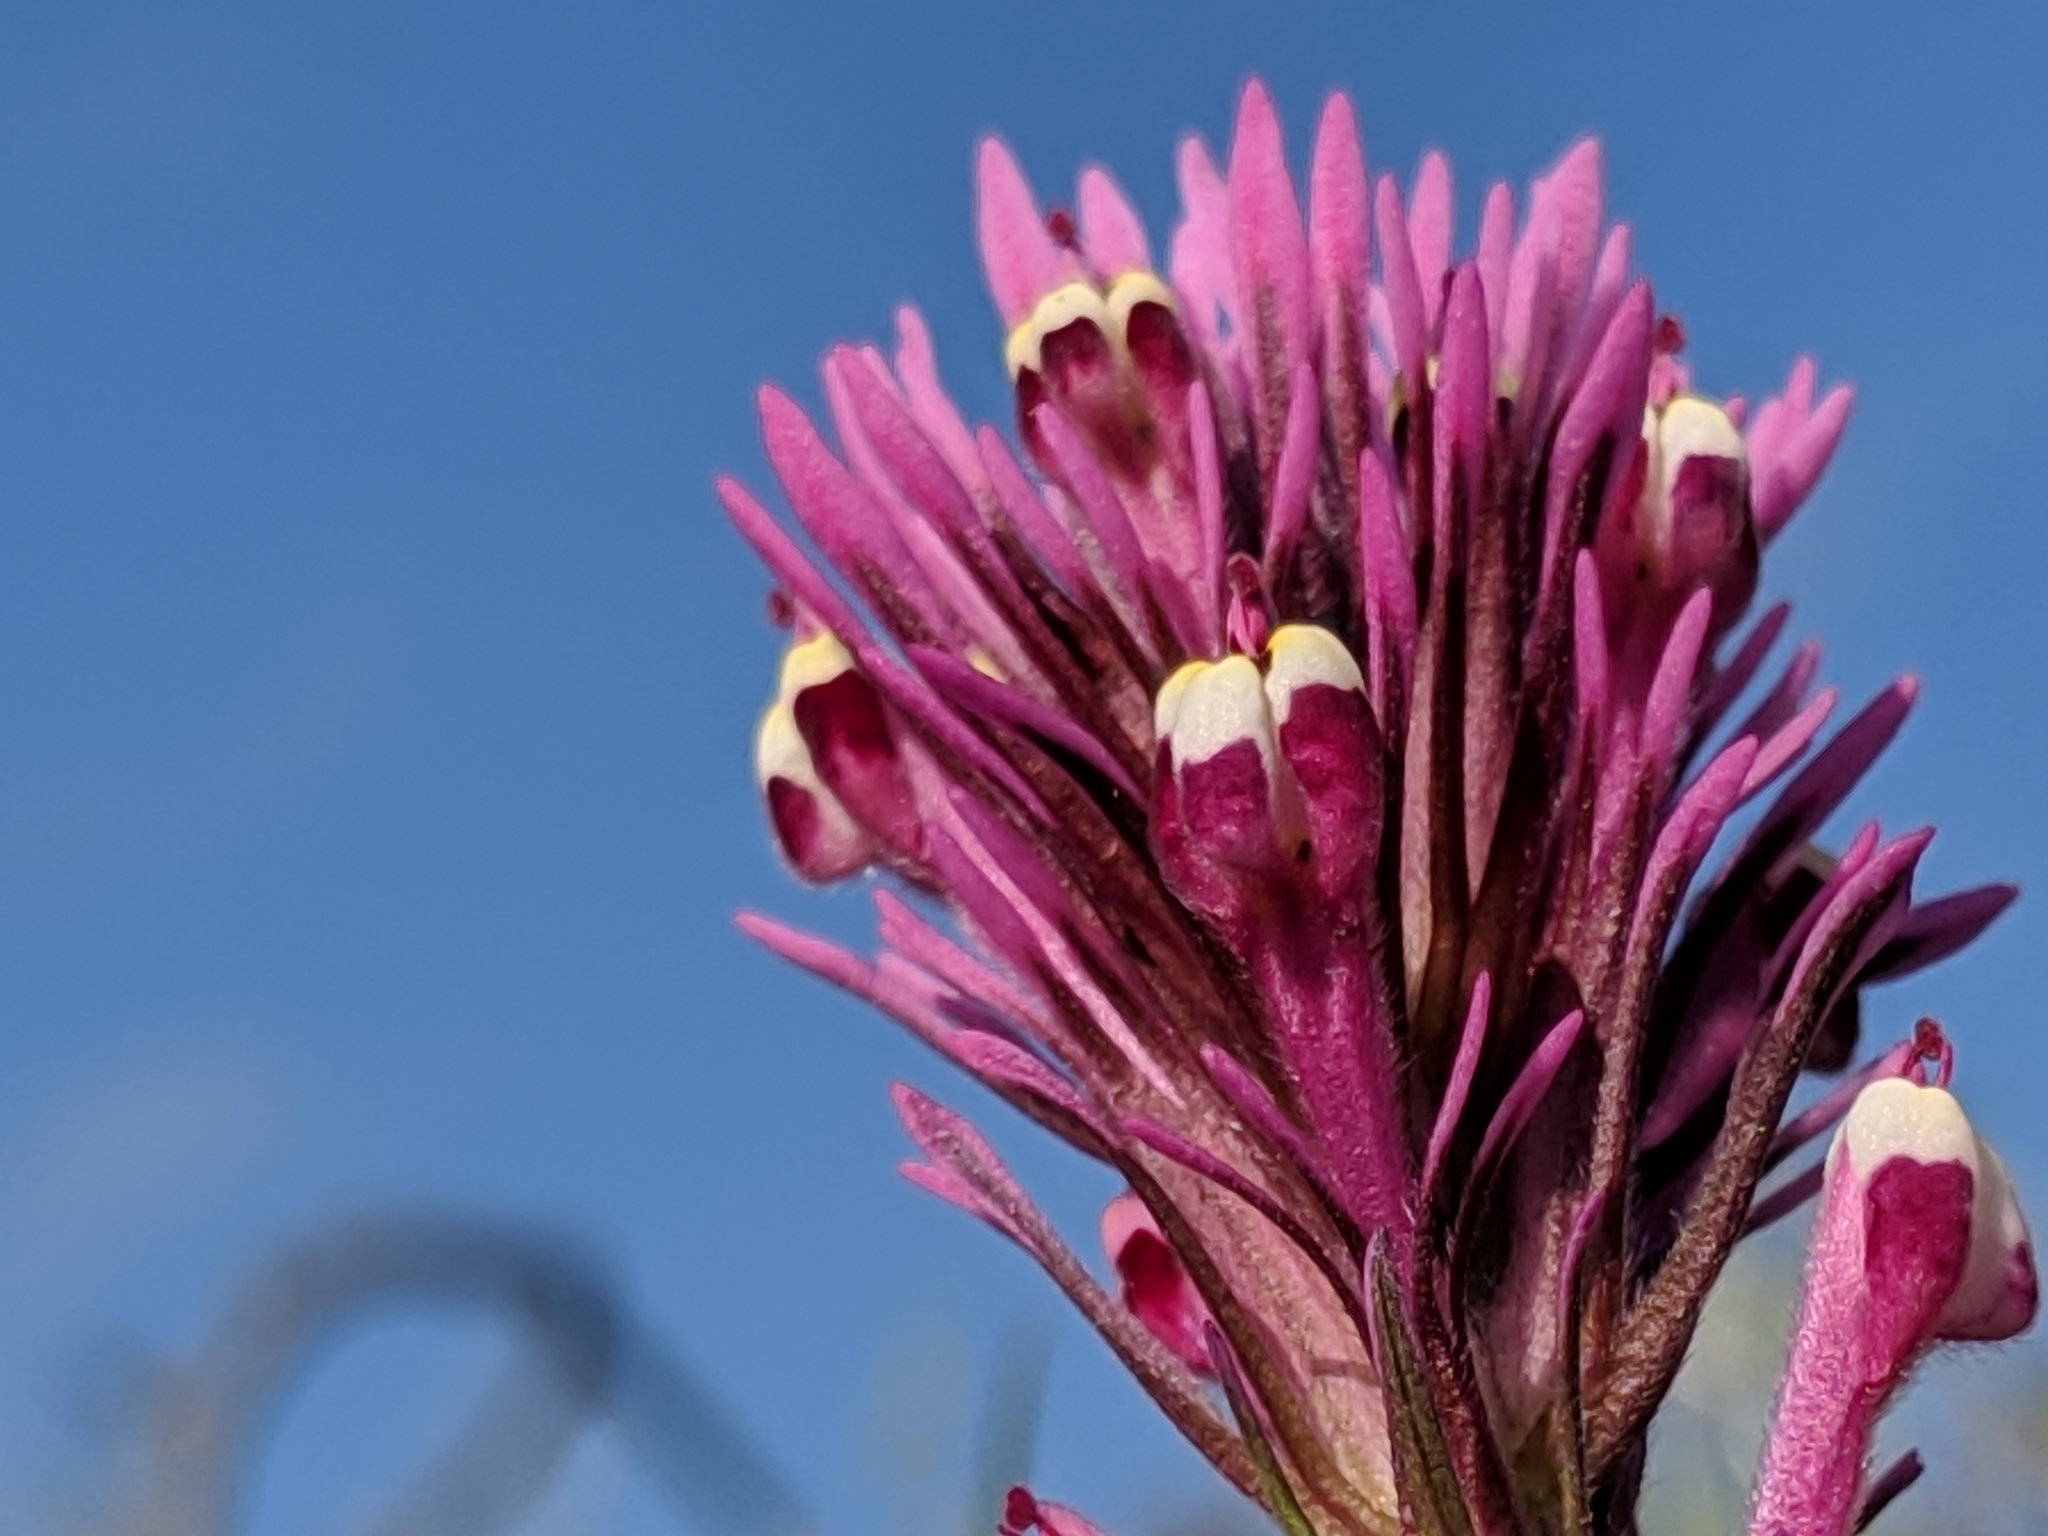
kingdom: Plantae
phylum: Tracheophyta
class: Magnoliopsida
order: Lamiales
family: Orobanchaceae
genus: Castilleja
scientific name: Castilleja densiflora
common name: Dense-flower indian paintbrush
